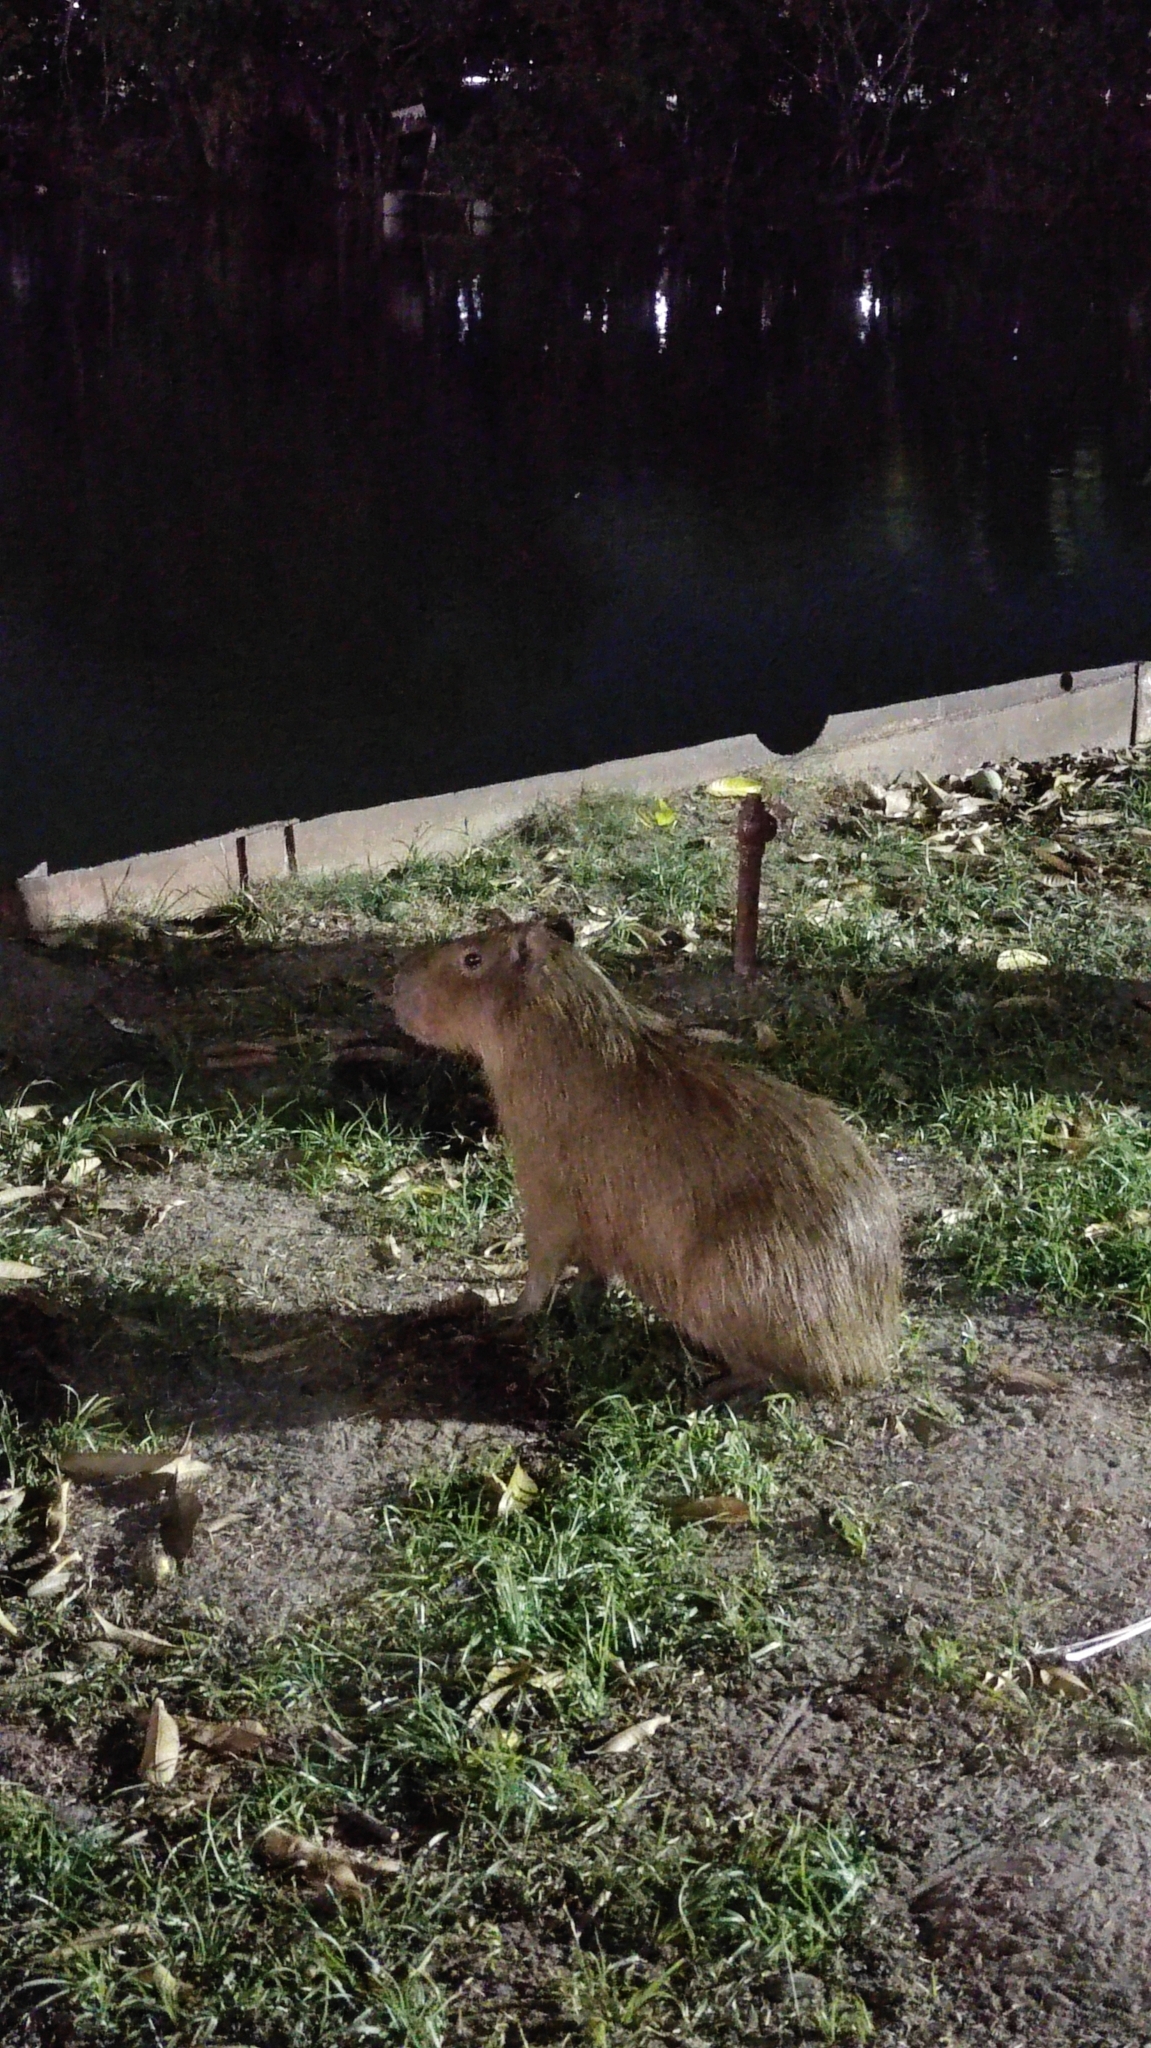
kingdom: Animalia
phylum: Chordata
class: Mammalia
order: Rodentia
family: Caviidae
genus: Hydrochoerus
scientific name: Hydrochoerus hydrochaeris
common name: Capybara
